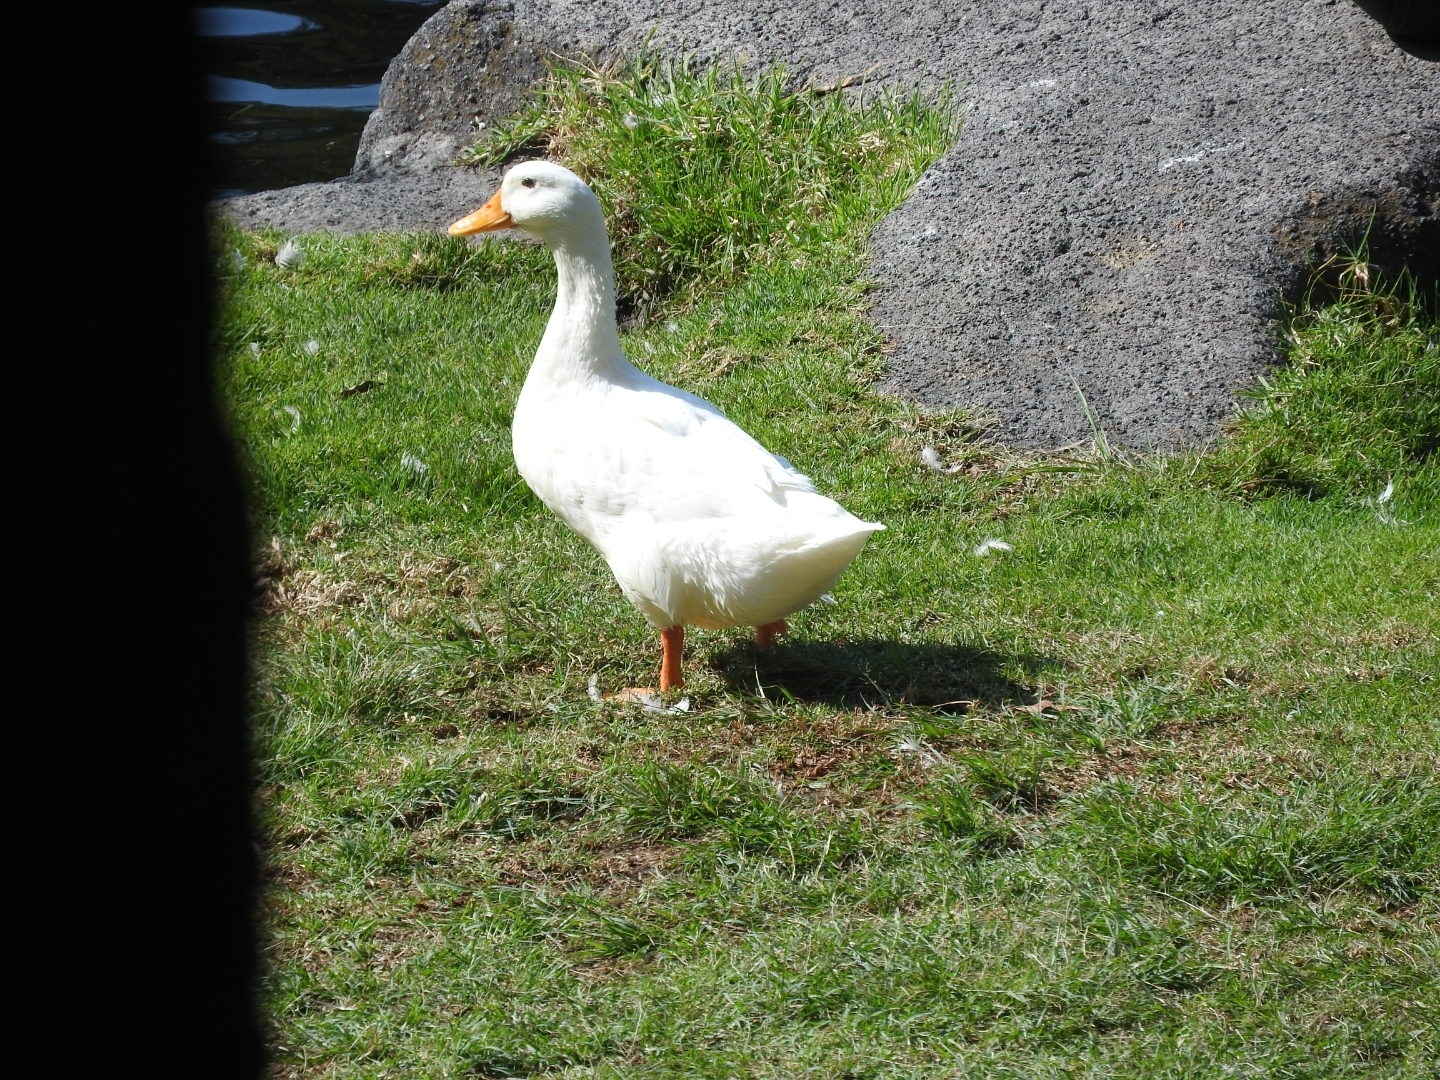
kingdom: Animalia
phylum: Chordata
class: Aves
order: Anseriformes
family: Anatidae
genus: Anas
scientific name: Anas platyrhynchos
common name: Mallard
